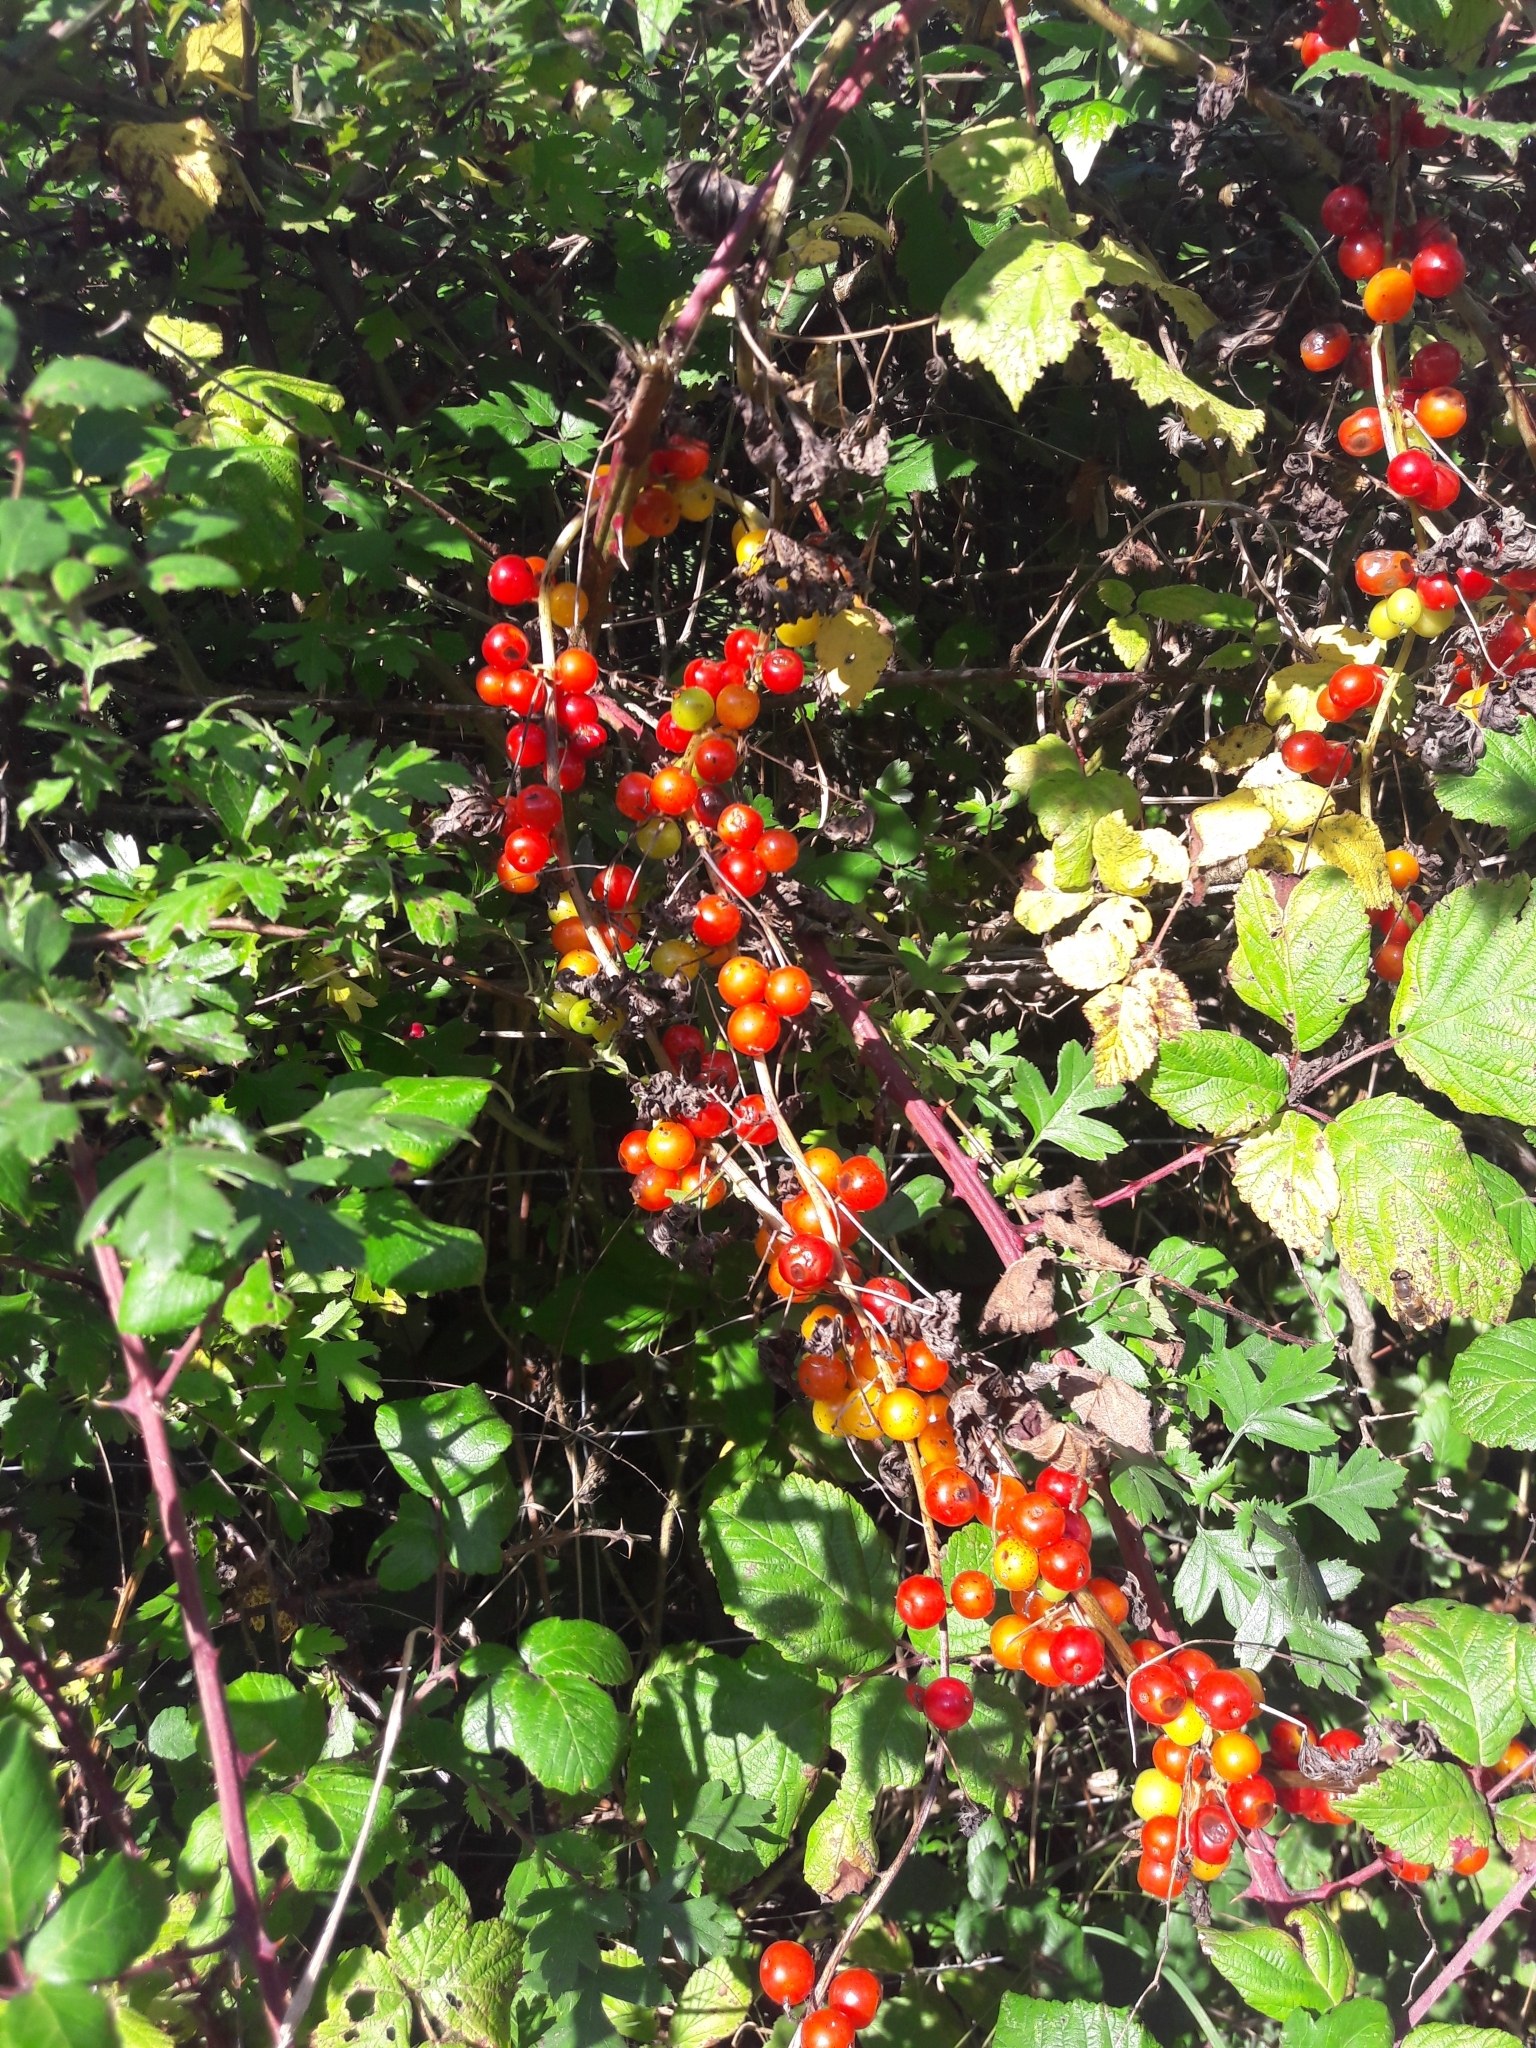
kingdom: Plantae
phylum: Tracheophyta
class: Liliopsida
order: Dioscoreales
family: Dioscoreaceae
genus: Dioscorea
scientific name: Dioscorea communis
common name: Black-bindweed
